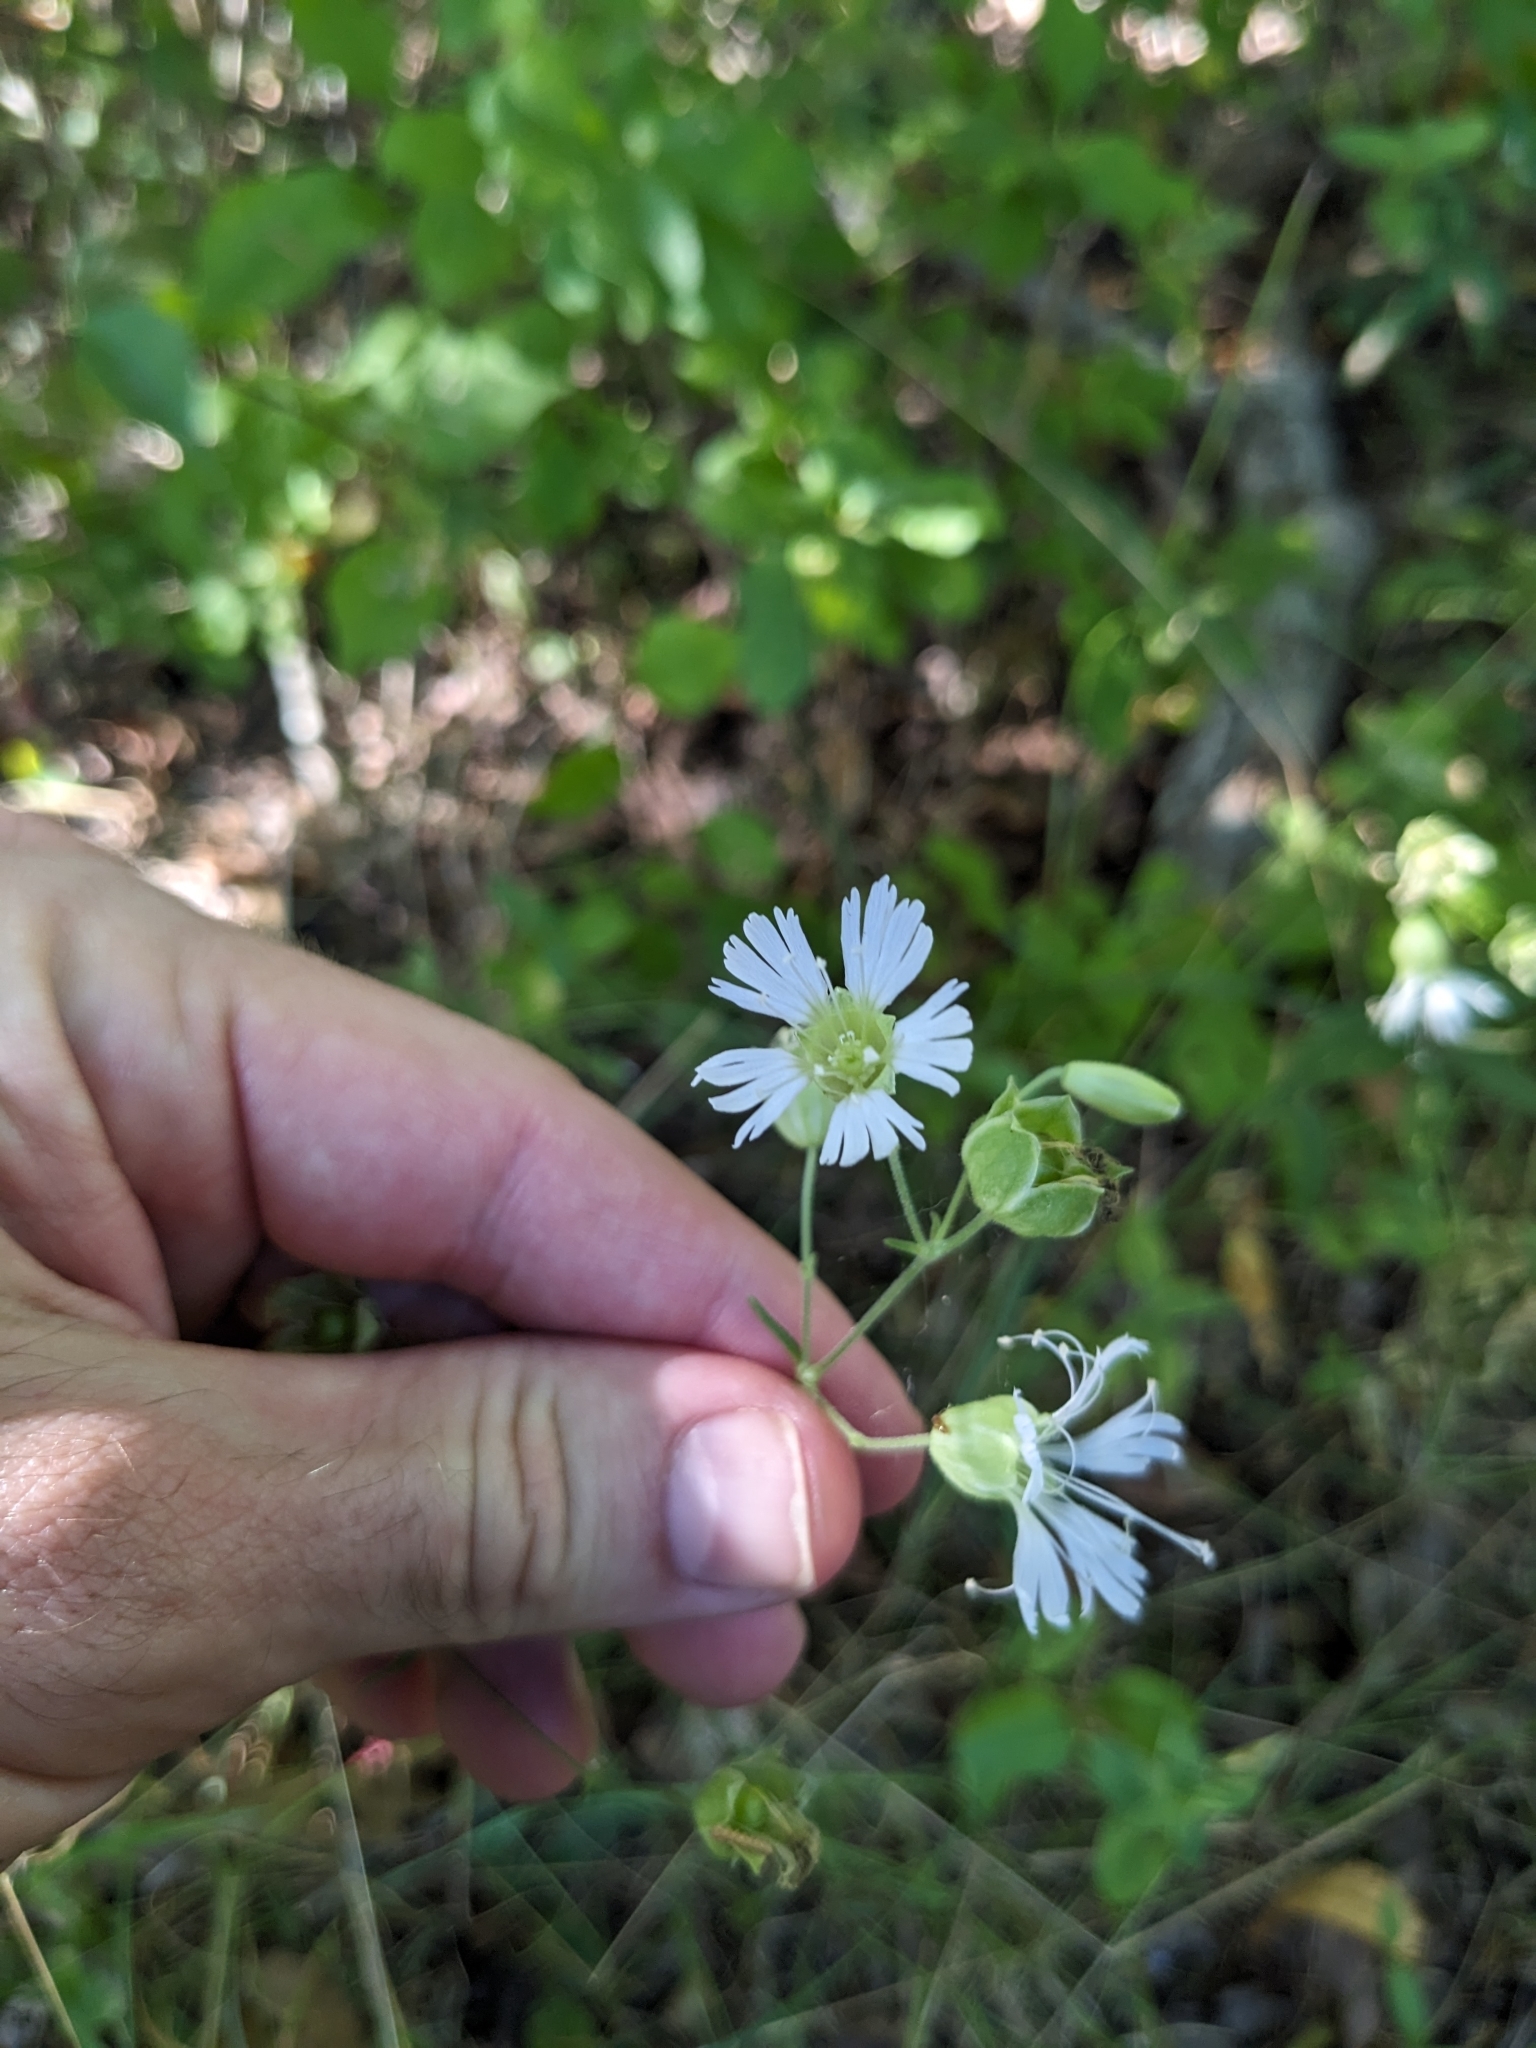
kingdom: Plantae
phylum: Tracheophyta
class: Magnoliopsida
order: Caryophyllales
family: Caryophyllaceae
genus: Silene
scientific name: Silene stellata
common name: Starry campion
